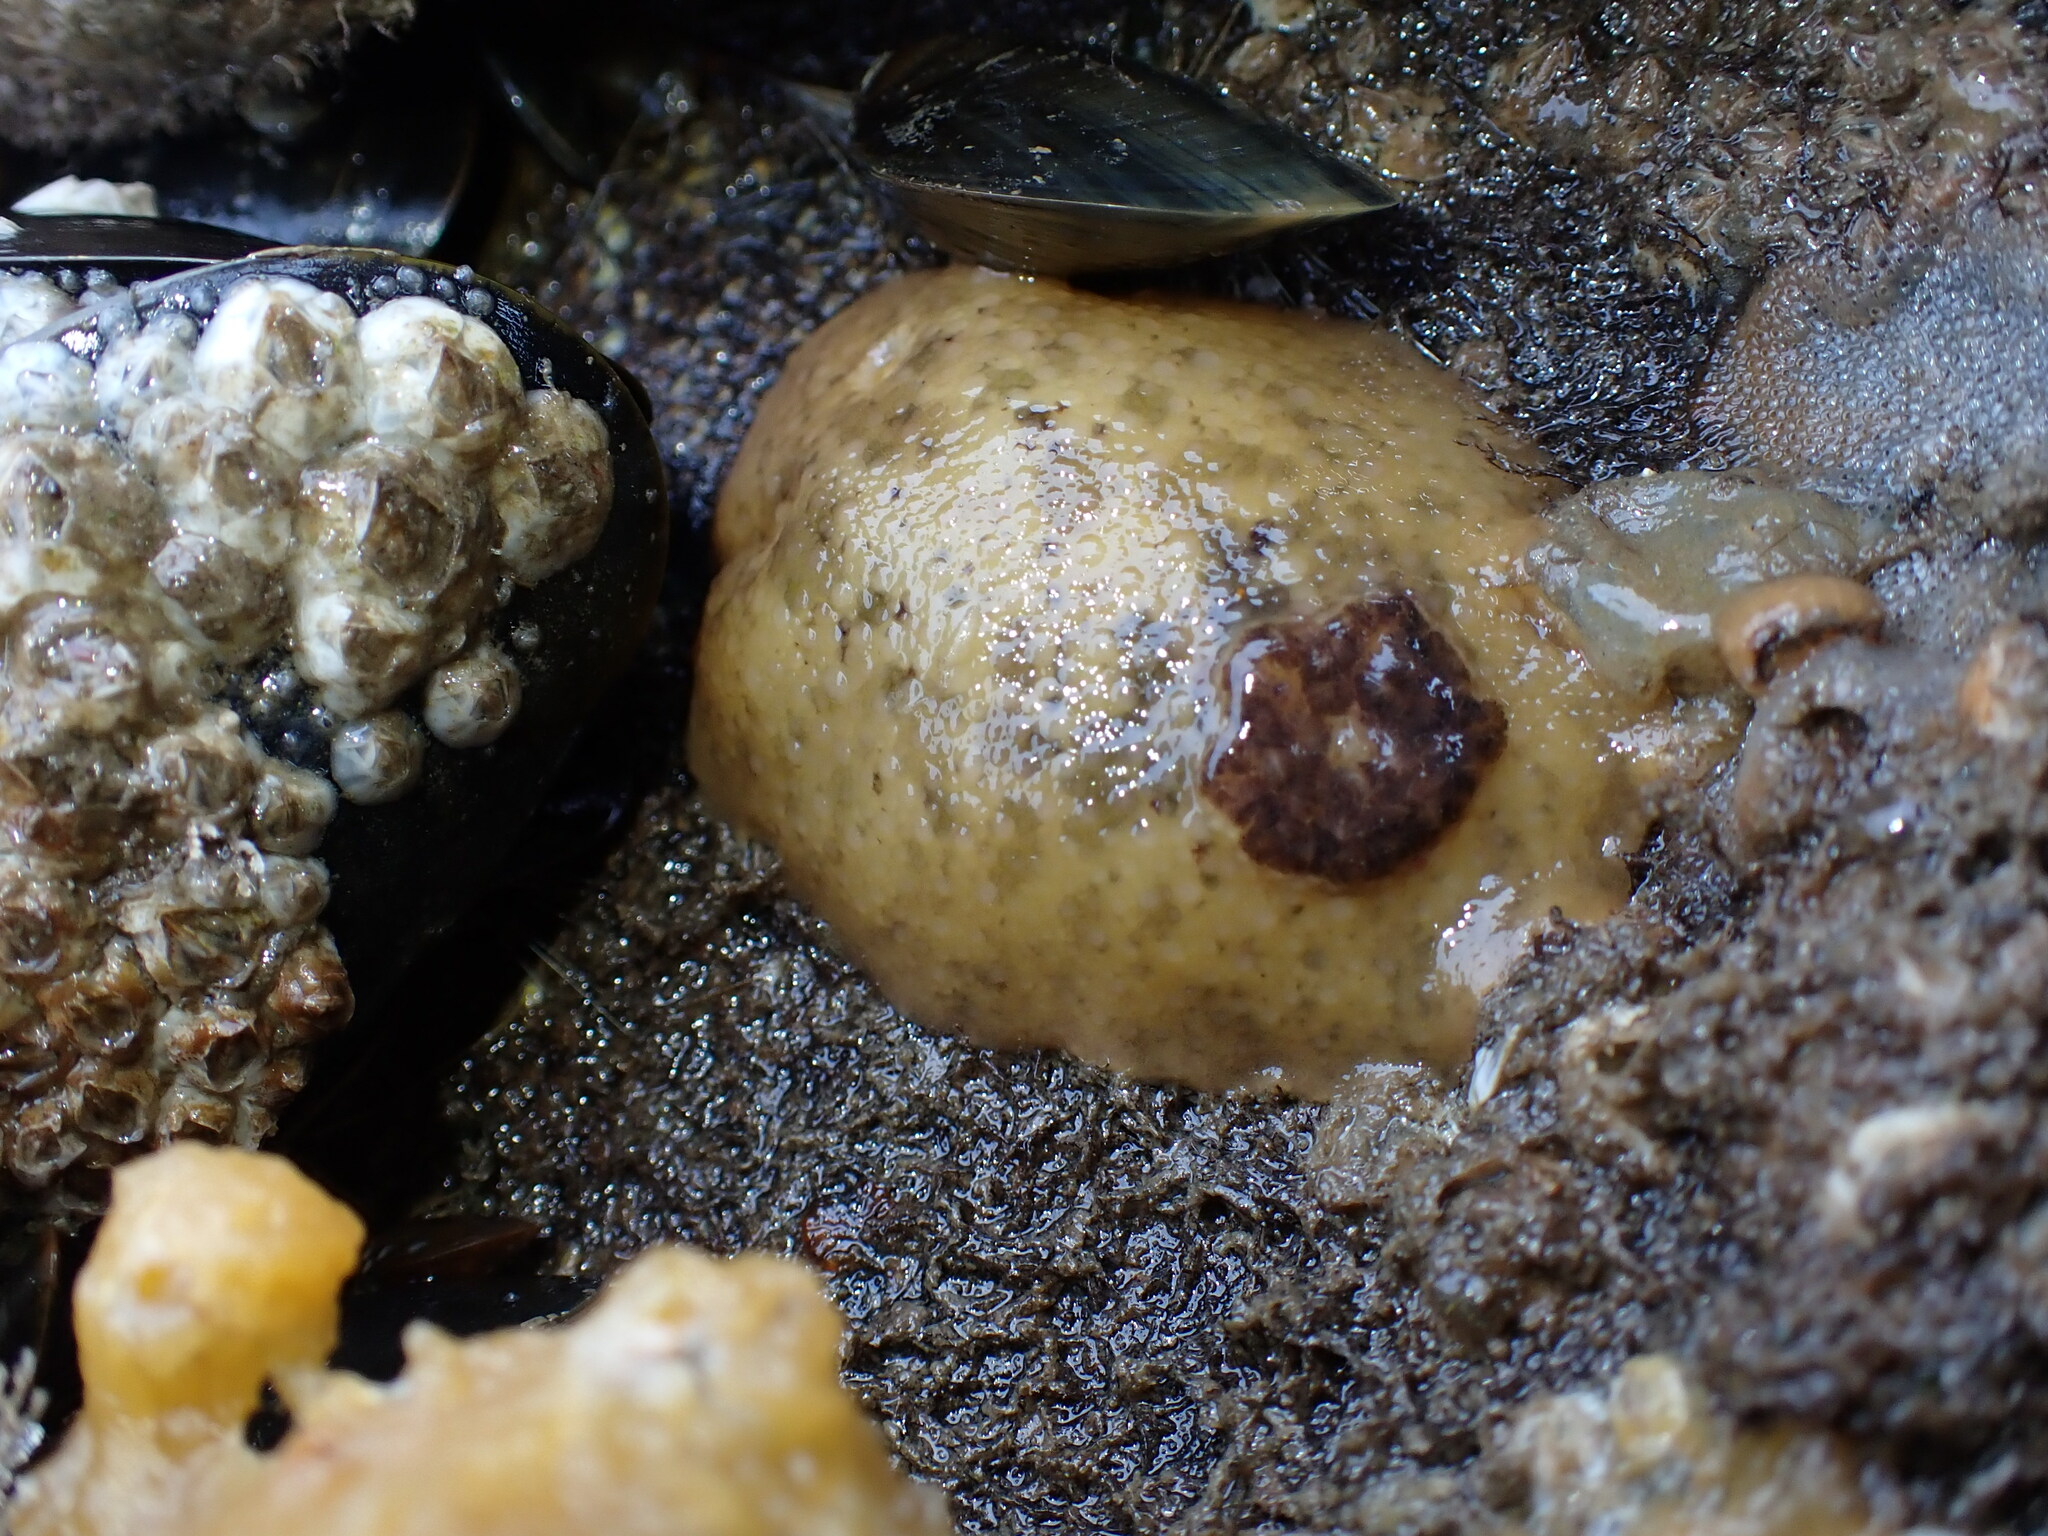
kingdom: Animalia
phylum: Mollusca
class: Gastropoda
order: Nudibranchia
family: Dorididae
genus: Doris
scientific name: Doris pseudoargus
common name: Sea lemon
